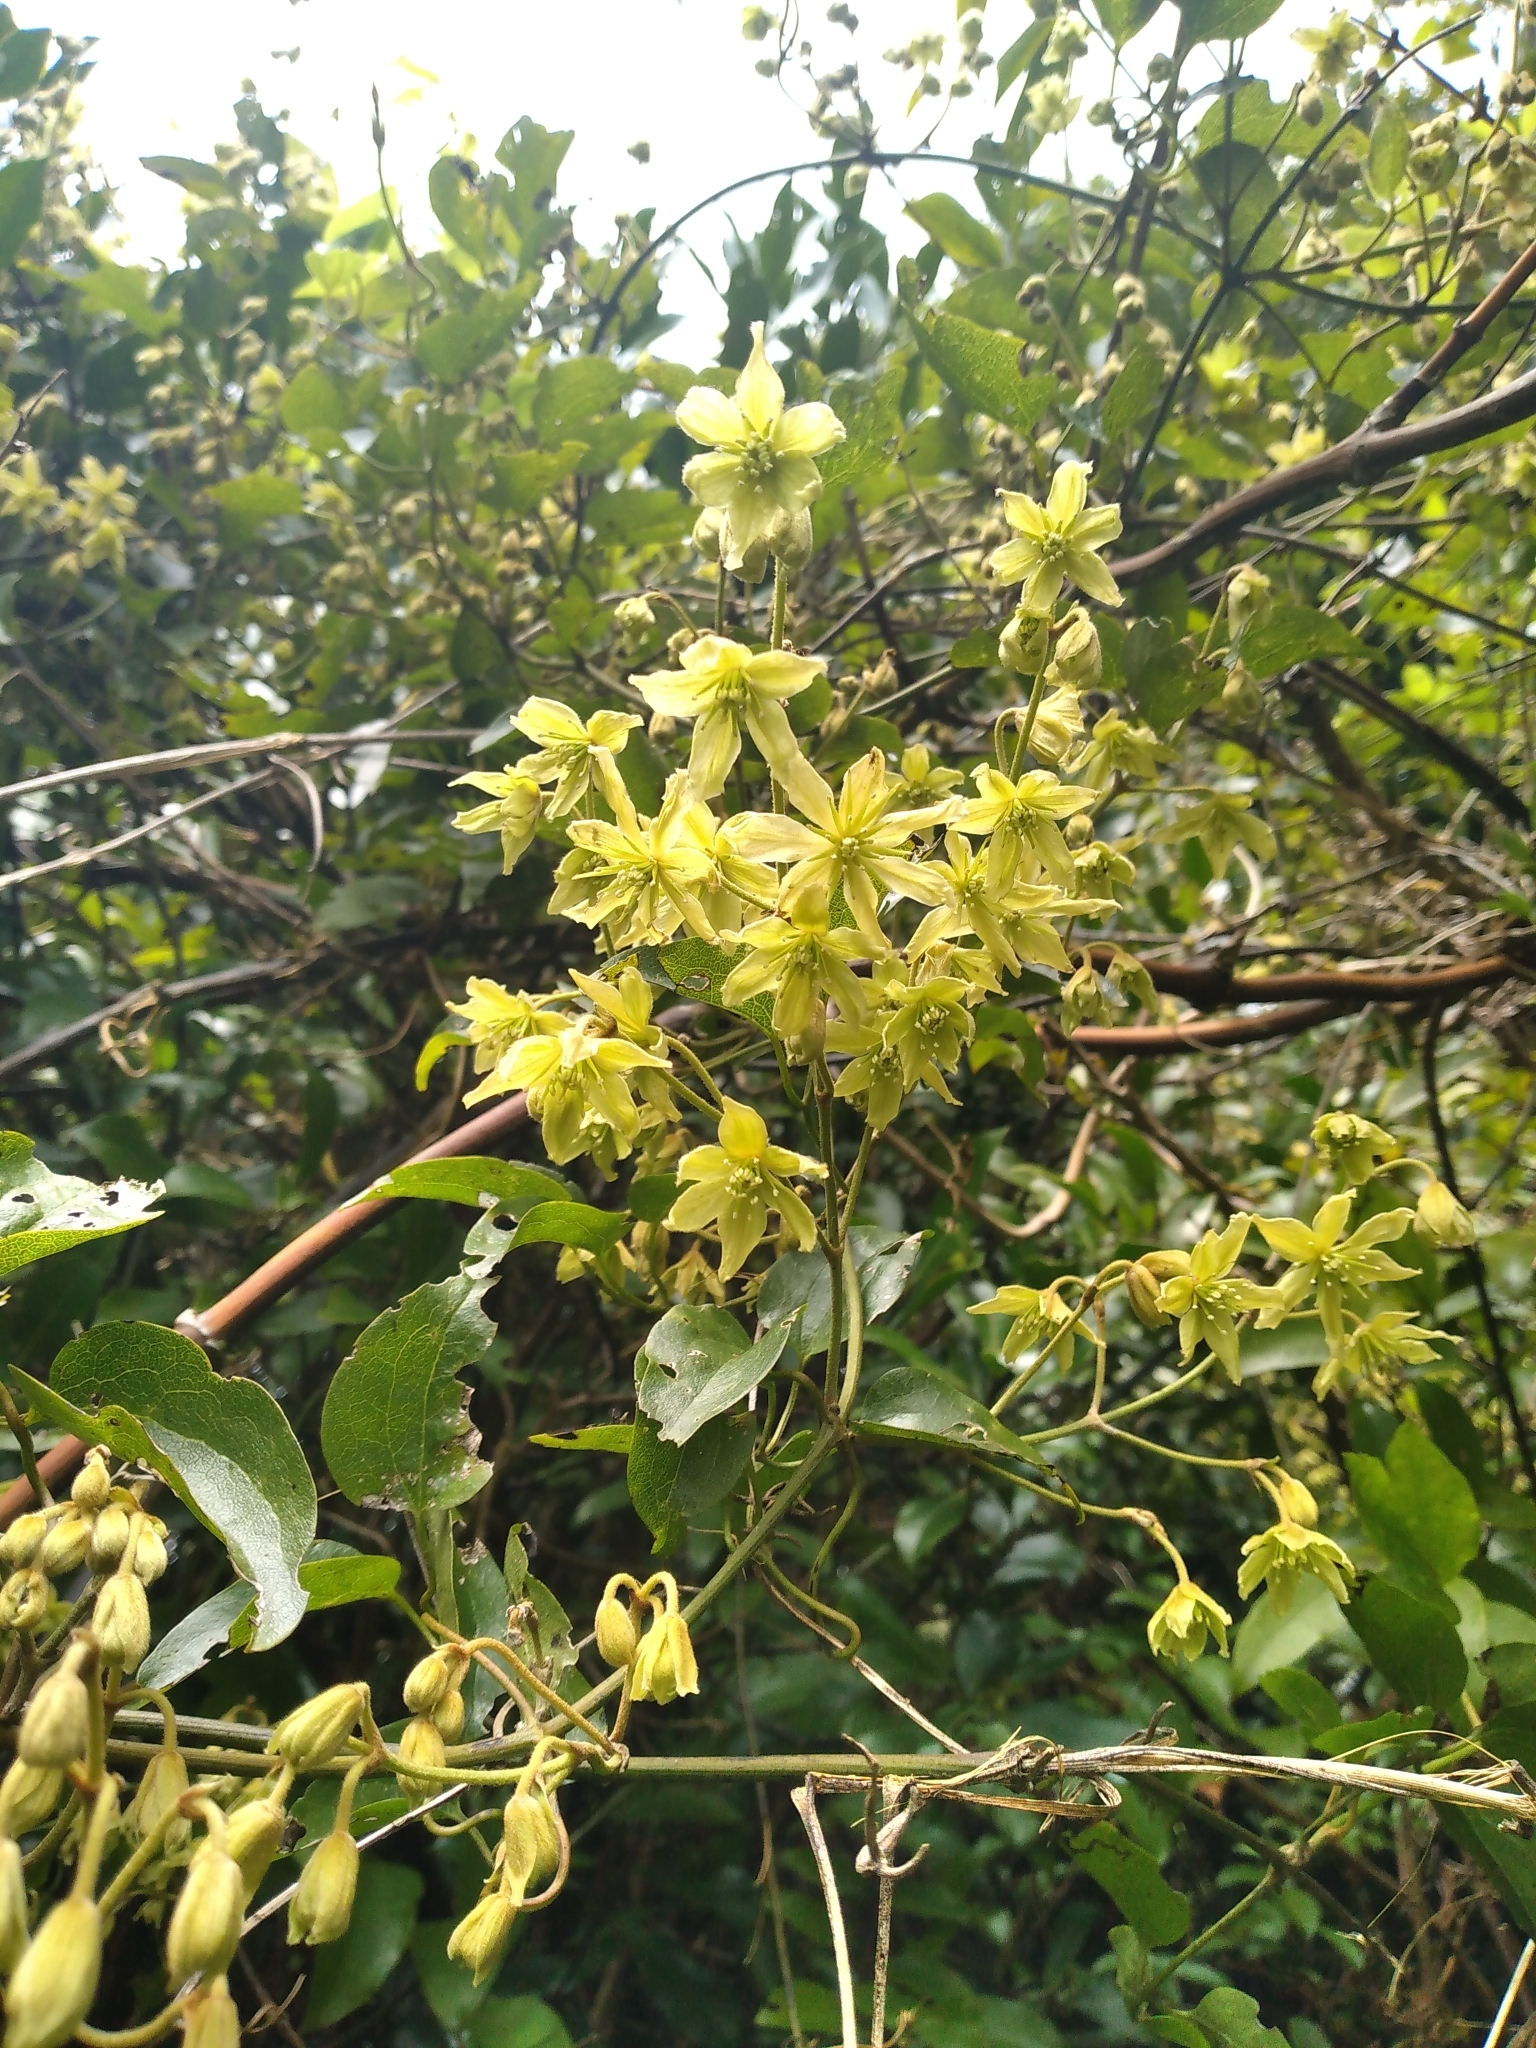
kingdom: Plantae
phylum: Tracheophyta
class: Magnoliopsida
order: Ranunculales
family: Ranunculaceae
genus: Clematis
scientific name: Clematis foetida
